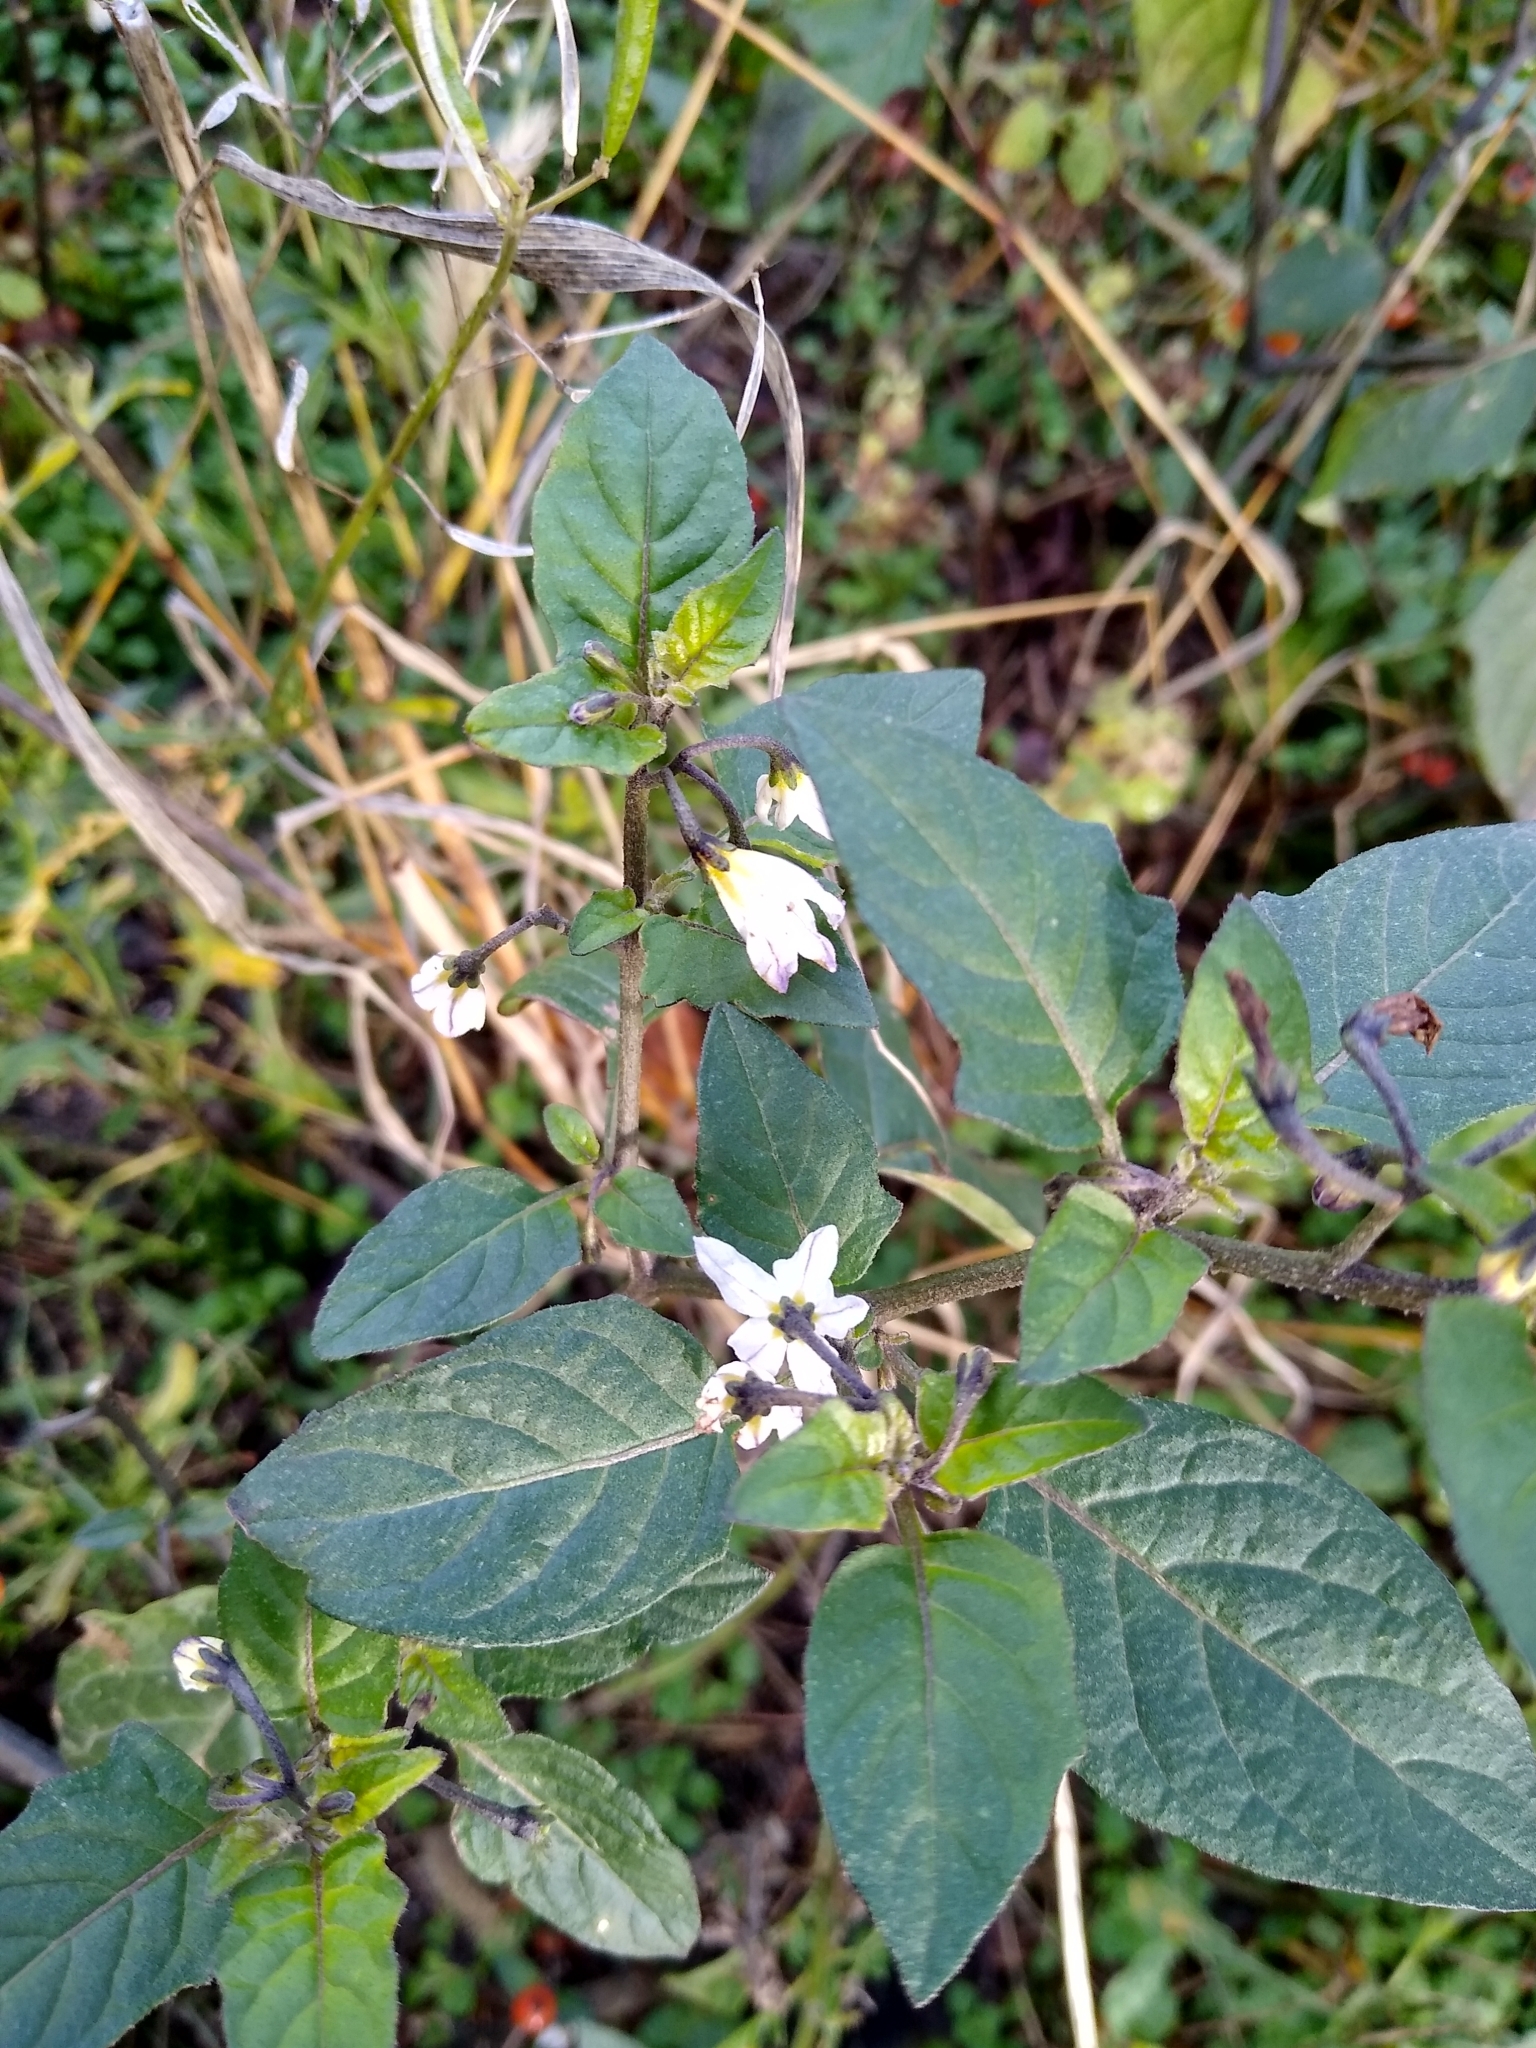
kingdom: Plantae
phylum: Tracheophyta
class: Magnoliopsida
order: Solanales
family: Solanaceae
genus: Solanum
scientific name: Solanum villosum
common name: Red nightshade
